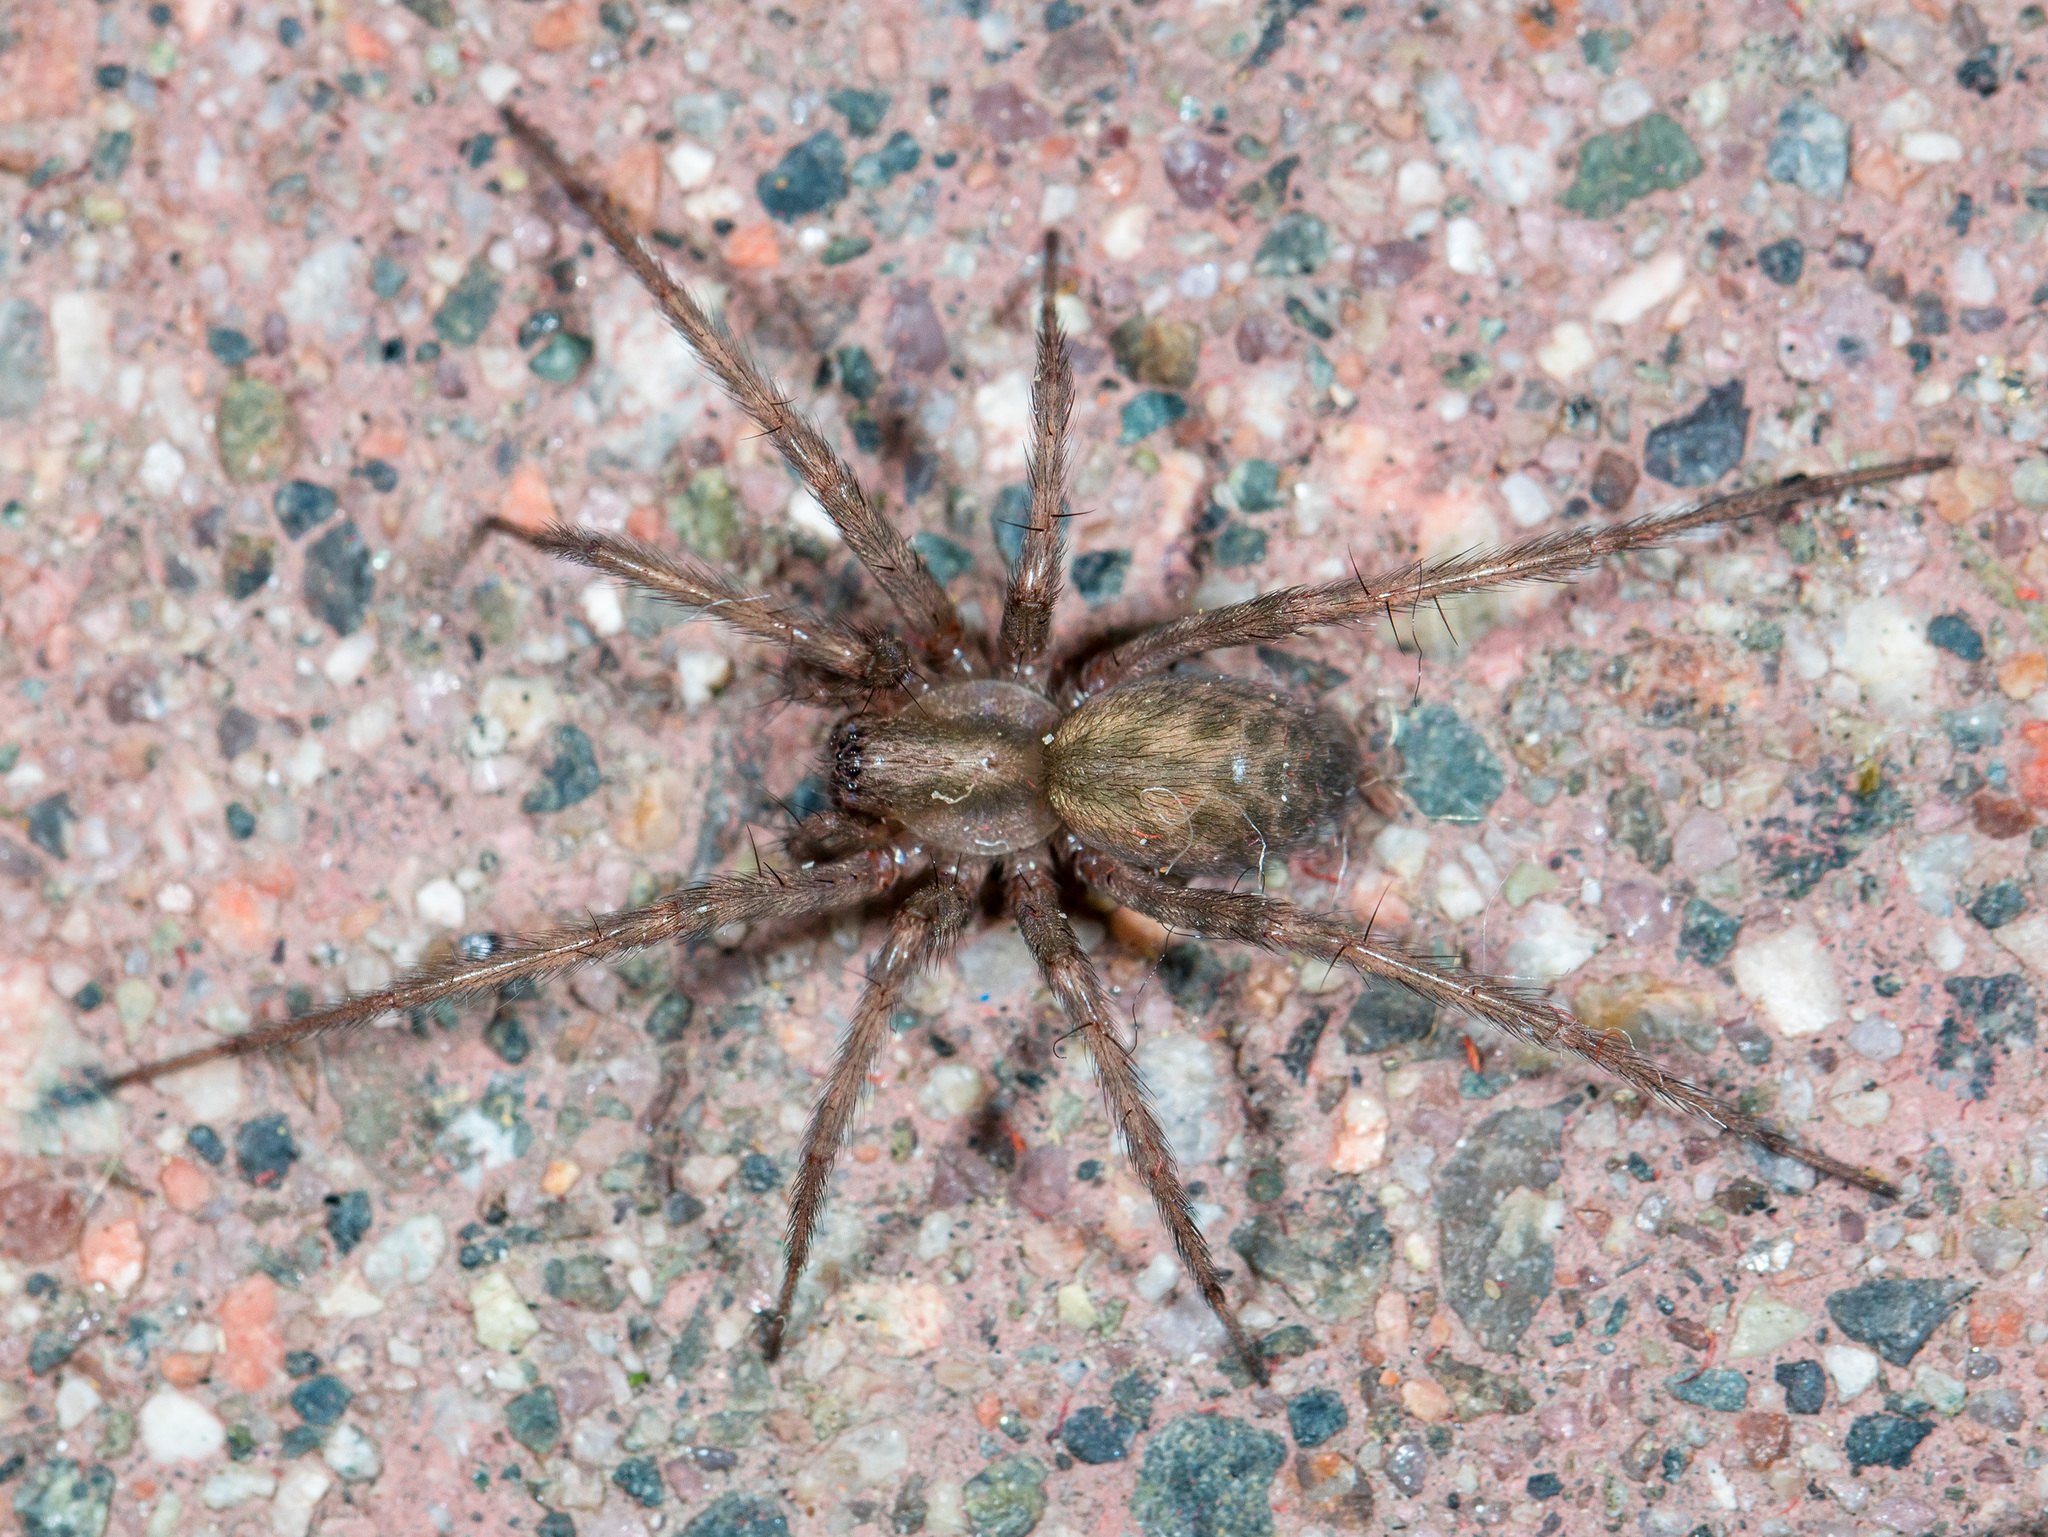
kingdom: Animalia
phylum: Arthropoda
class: Arachnida
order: Araneae
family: Agelenidae
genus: Tegenaria
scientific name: Tegenaria domestica
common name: Barn funnel weaver
